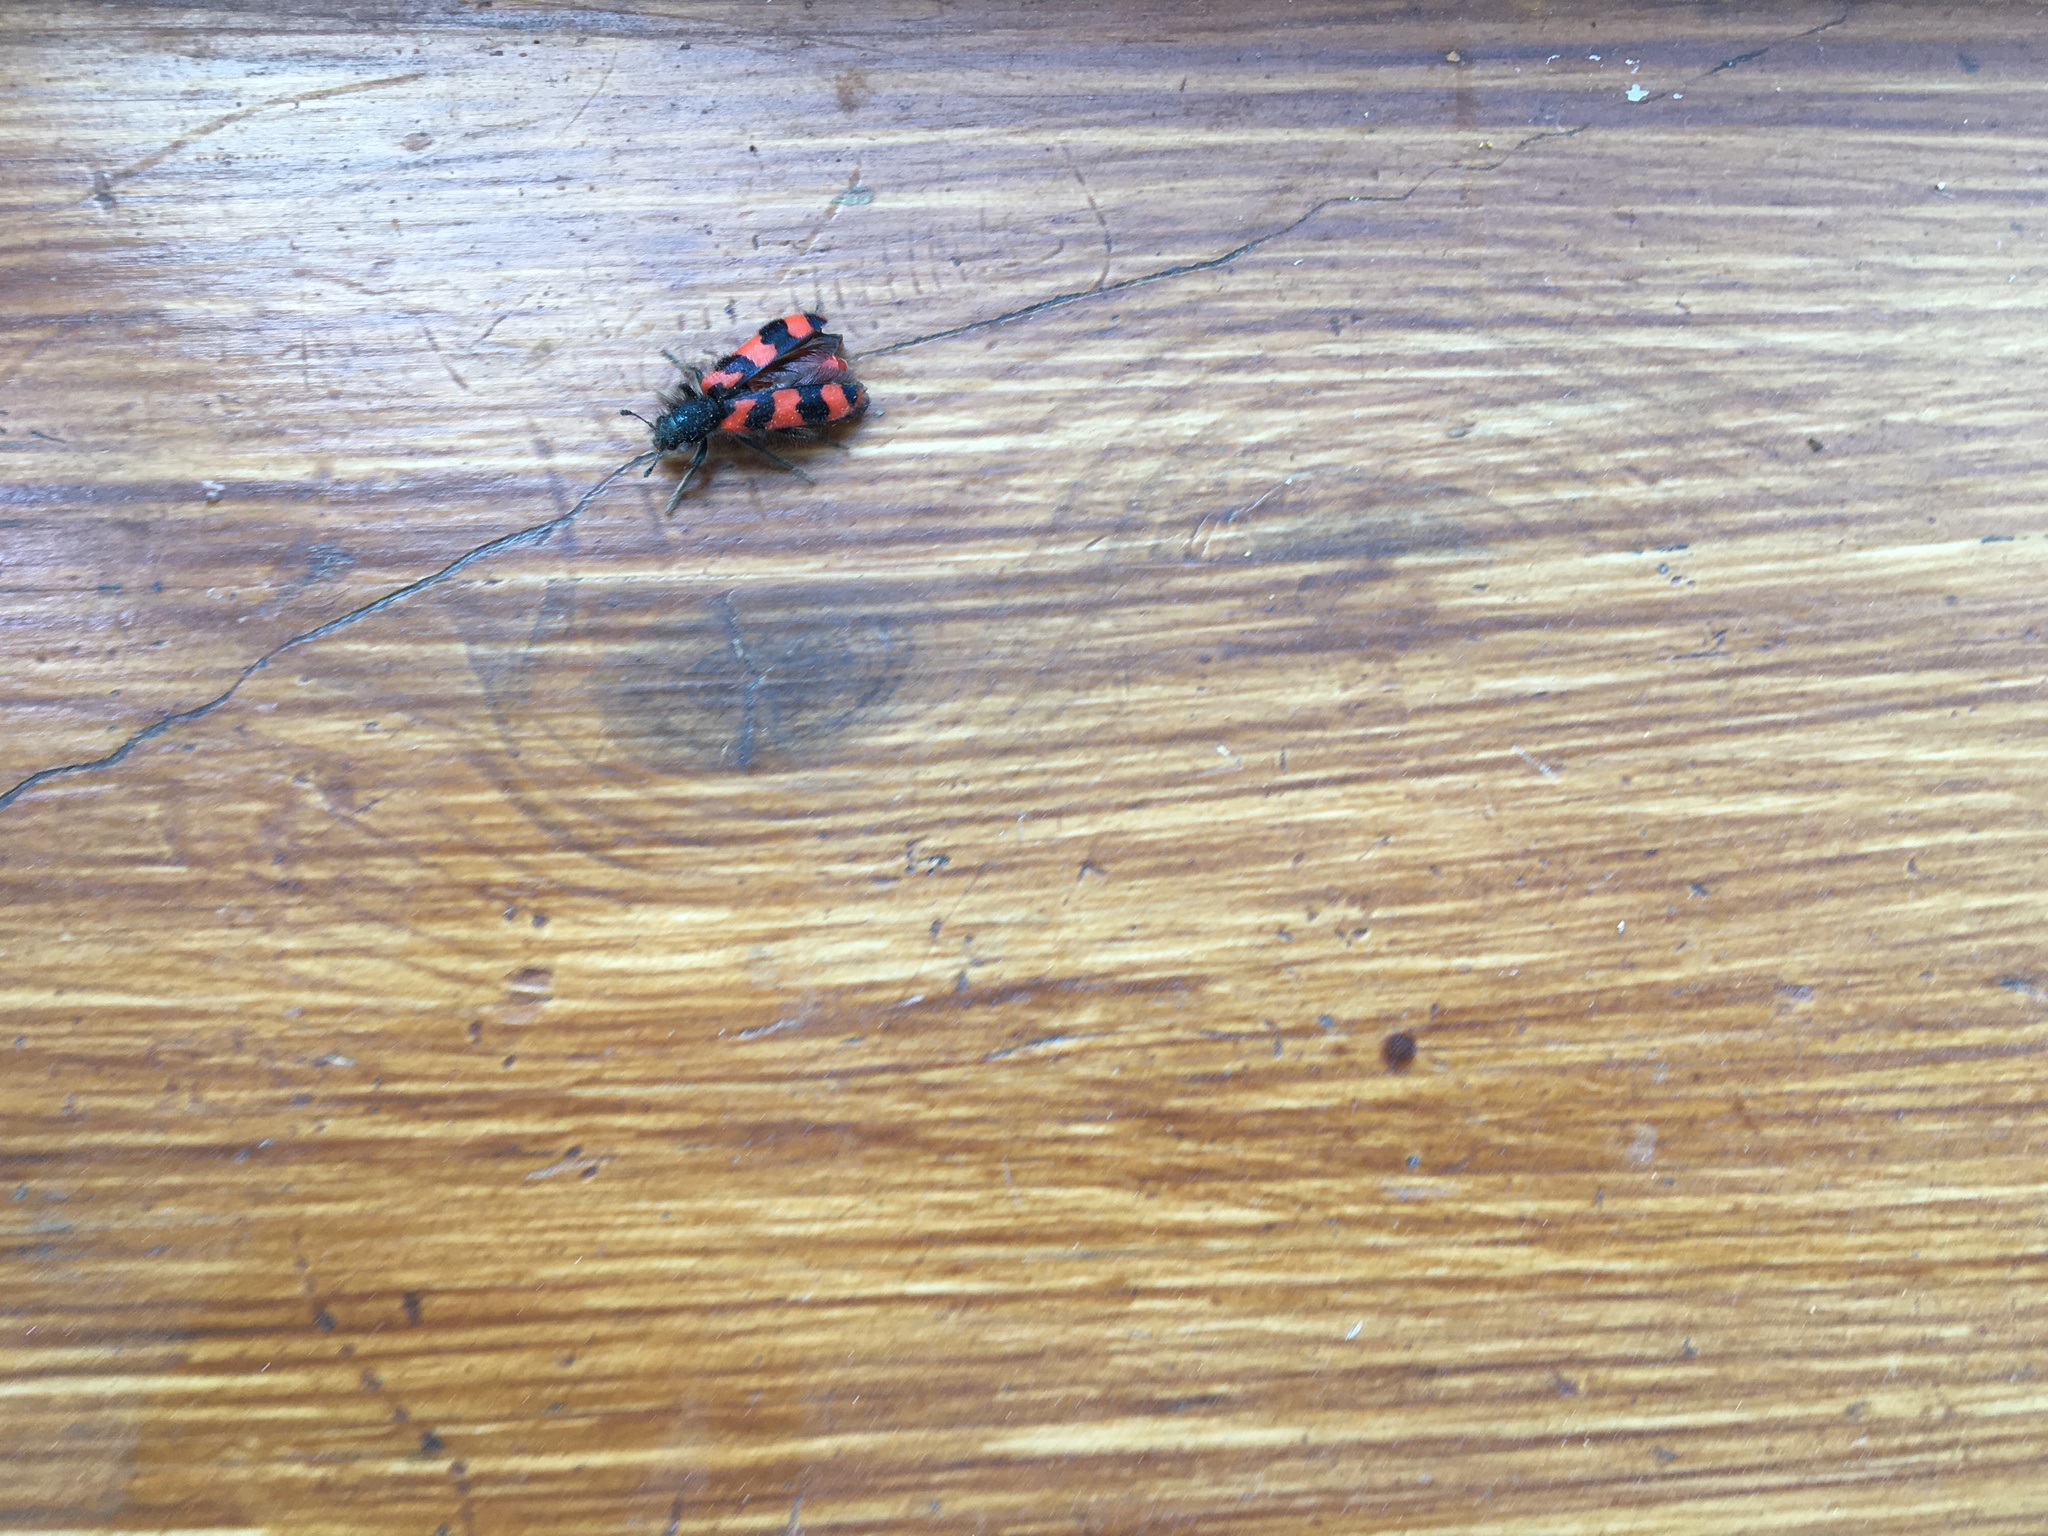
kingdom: Animalia
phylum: Arthropoda
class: Insecta
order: Coleoptera
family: Cleridae
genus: Trichodes
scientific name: Trichodes alvearius
